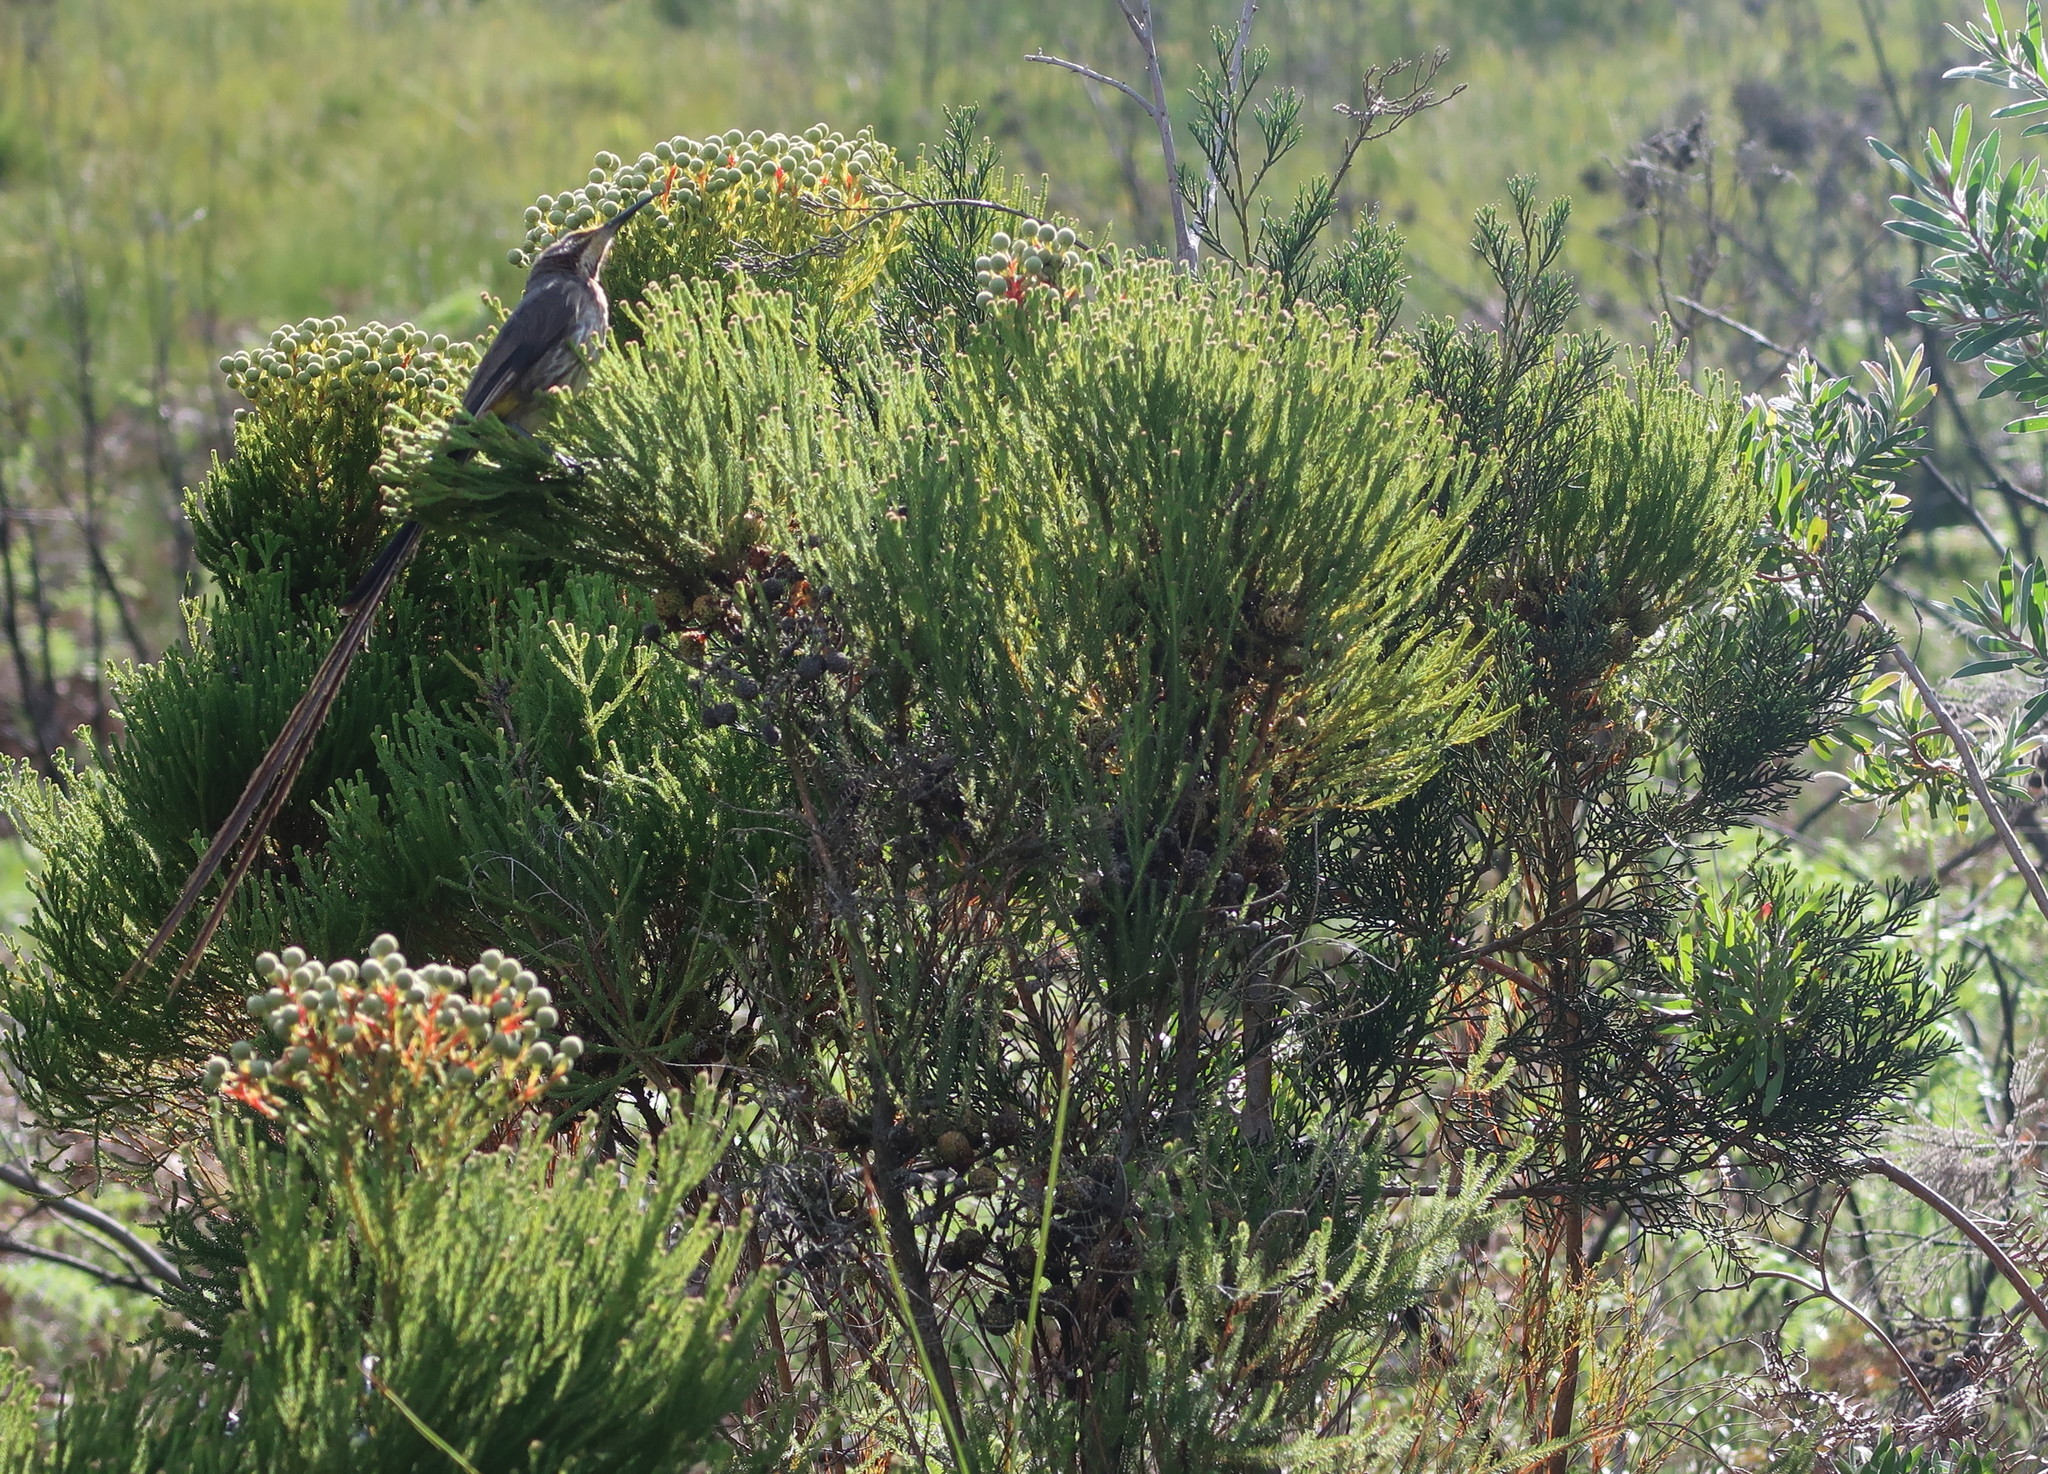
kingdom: Animalia
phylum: Chordata
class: Aves
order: Passeriformes
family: Promeropidae
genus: Promerops
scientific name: Promerops cafer
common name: Cape sugarbird
